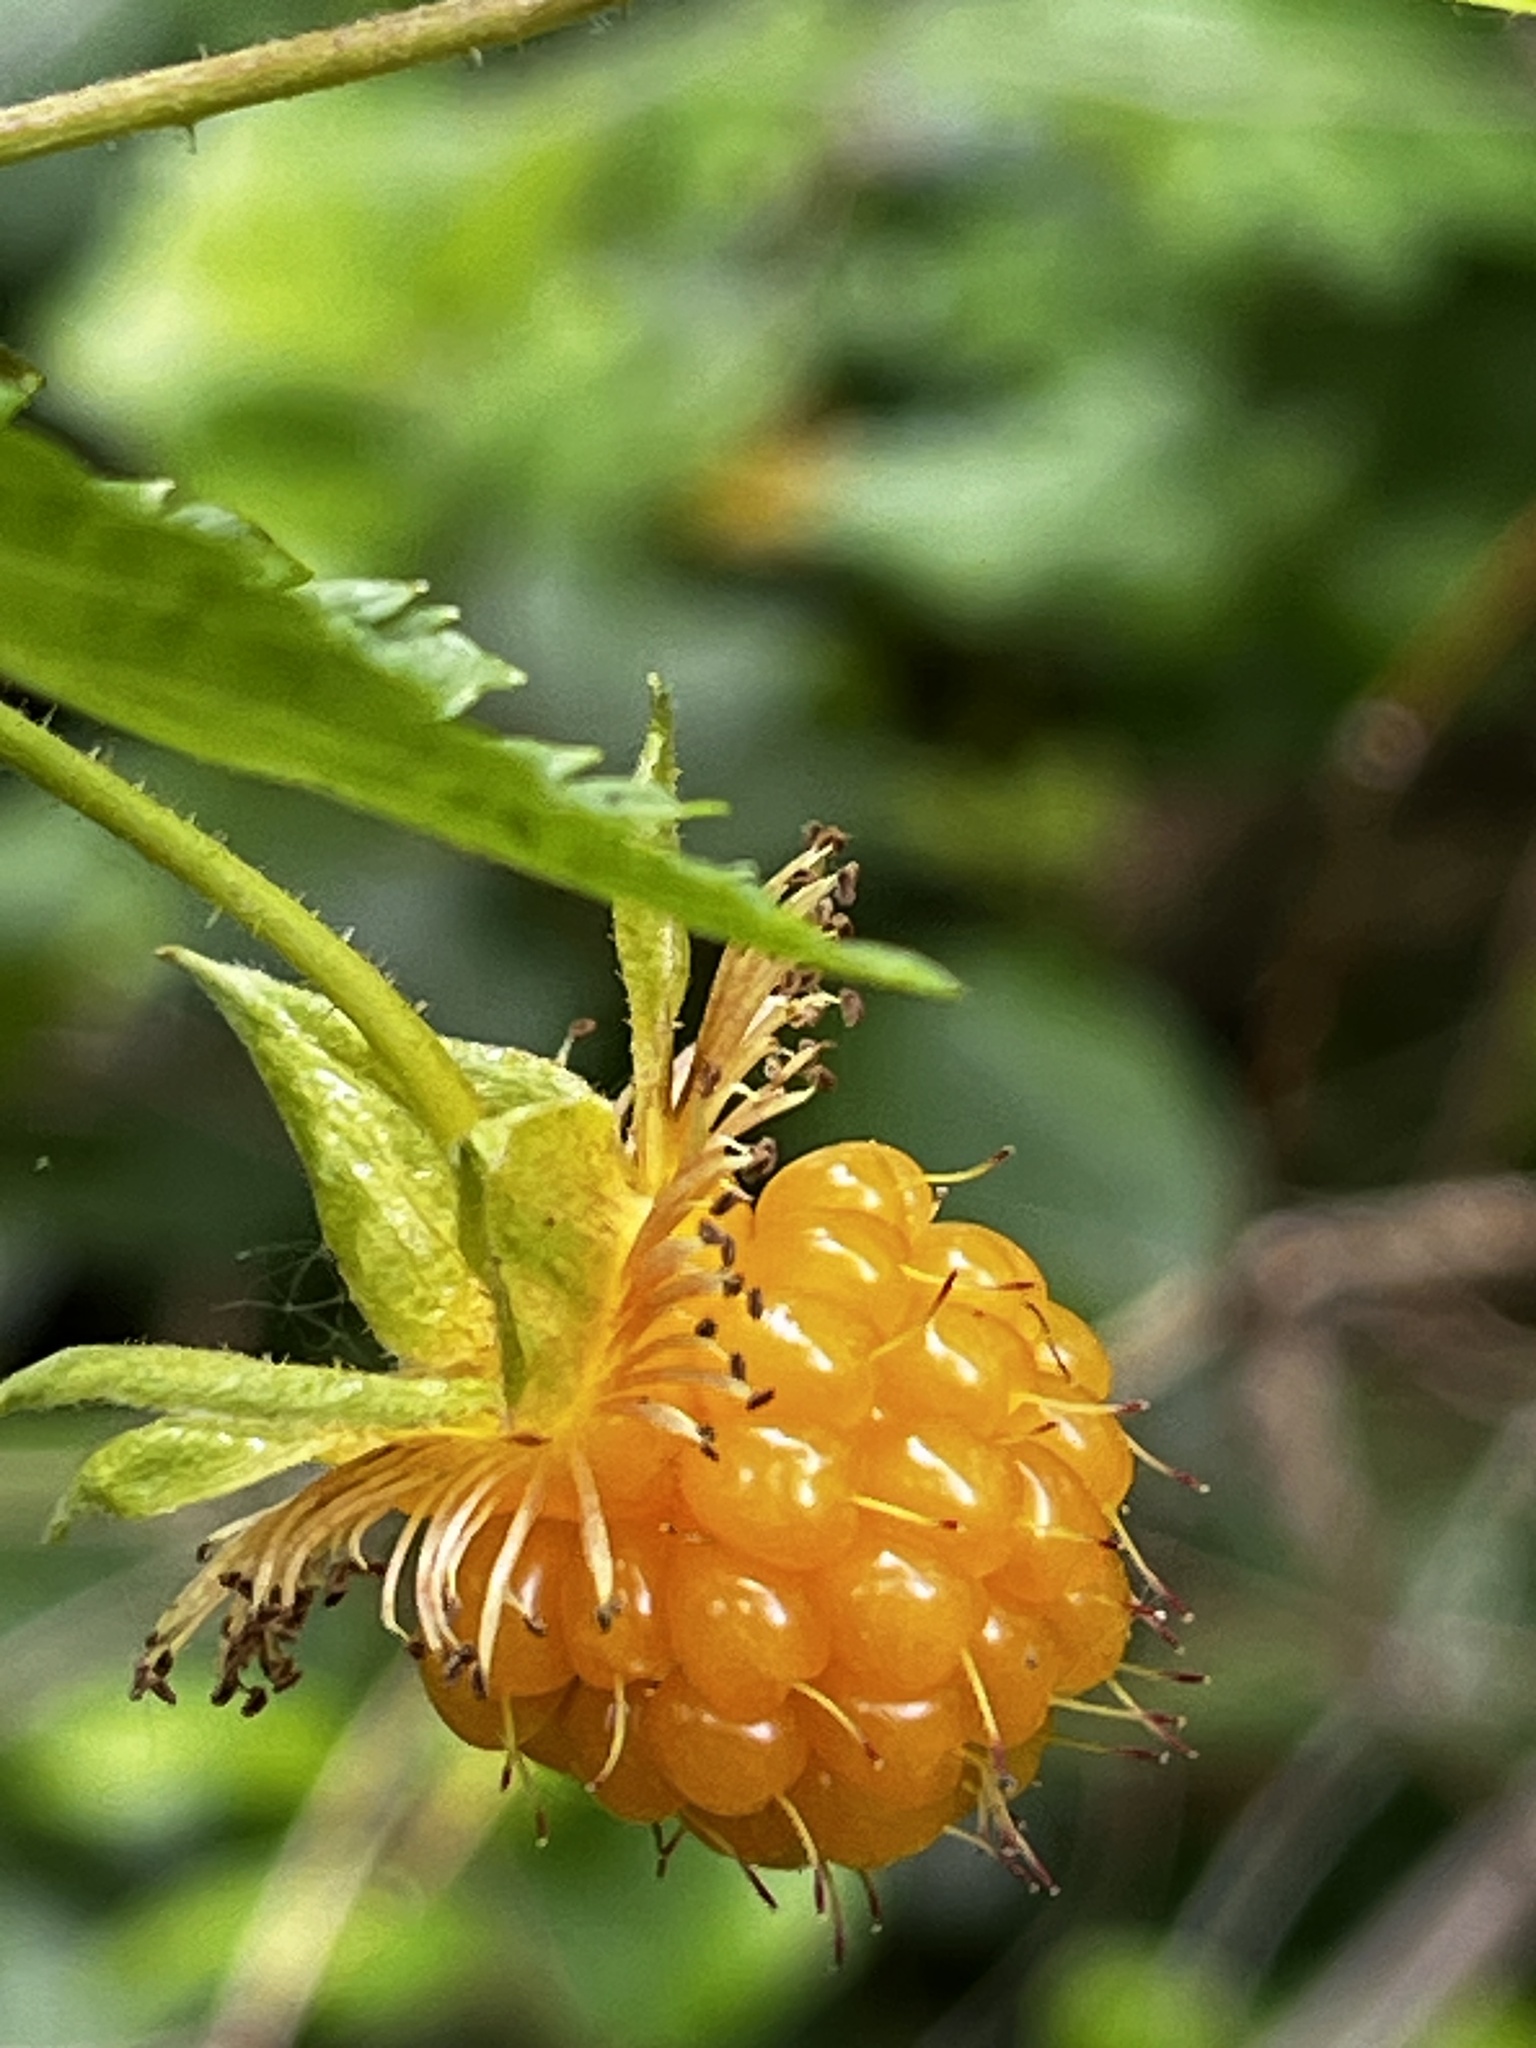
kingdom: Plantae
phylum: Tracheophyta
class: Magnoliopsida
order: Rosales
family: Rosaceae
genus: Rubus
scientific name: Rubus spectabilis
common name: Salmonberry
